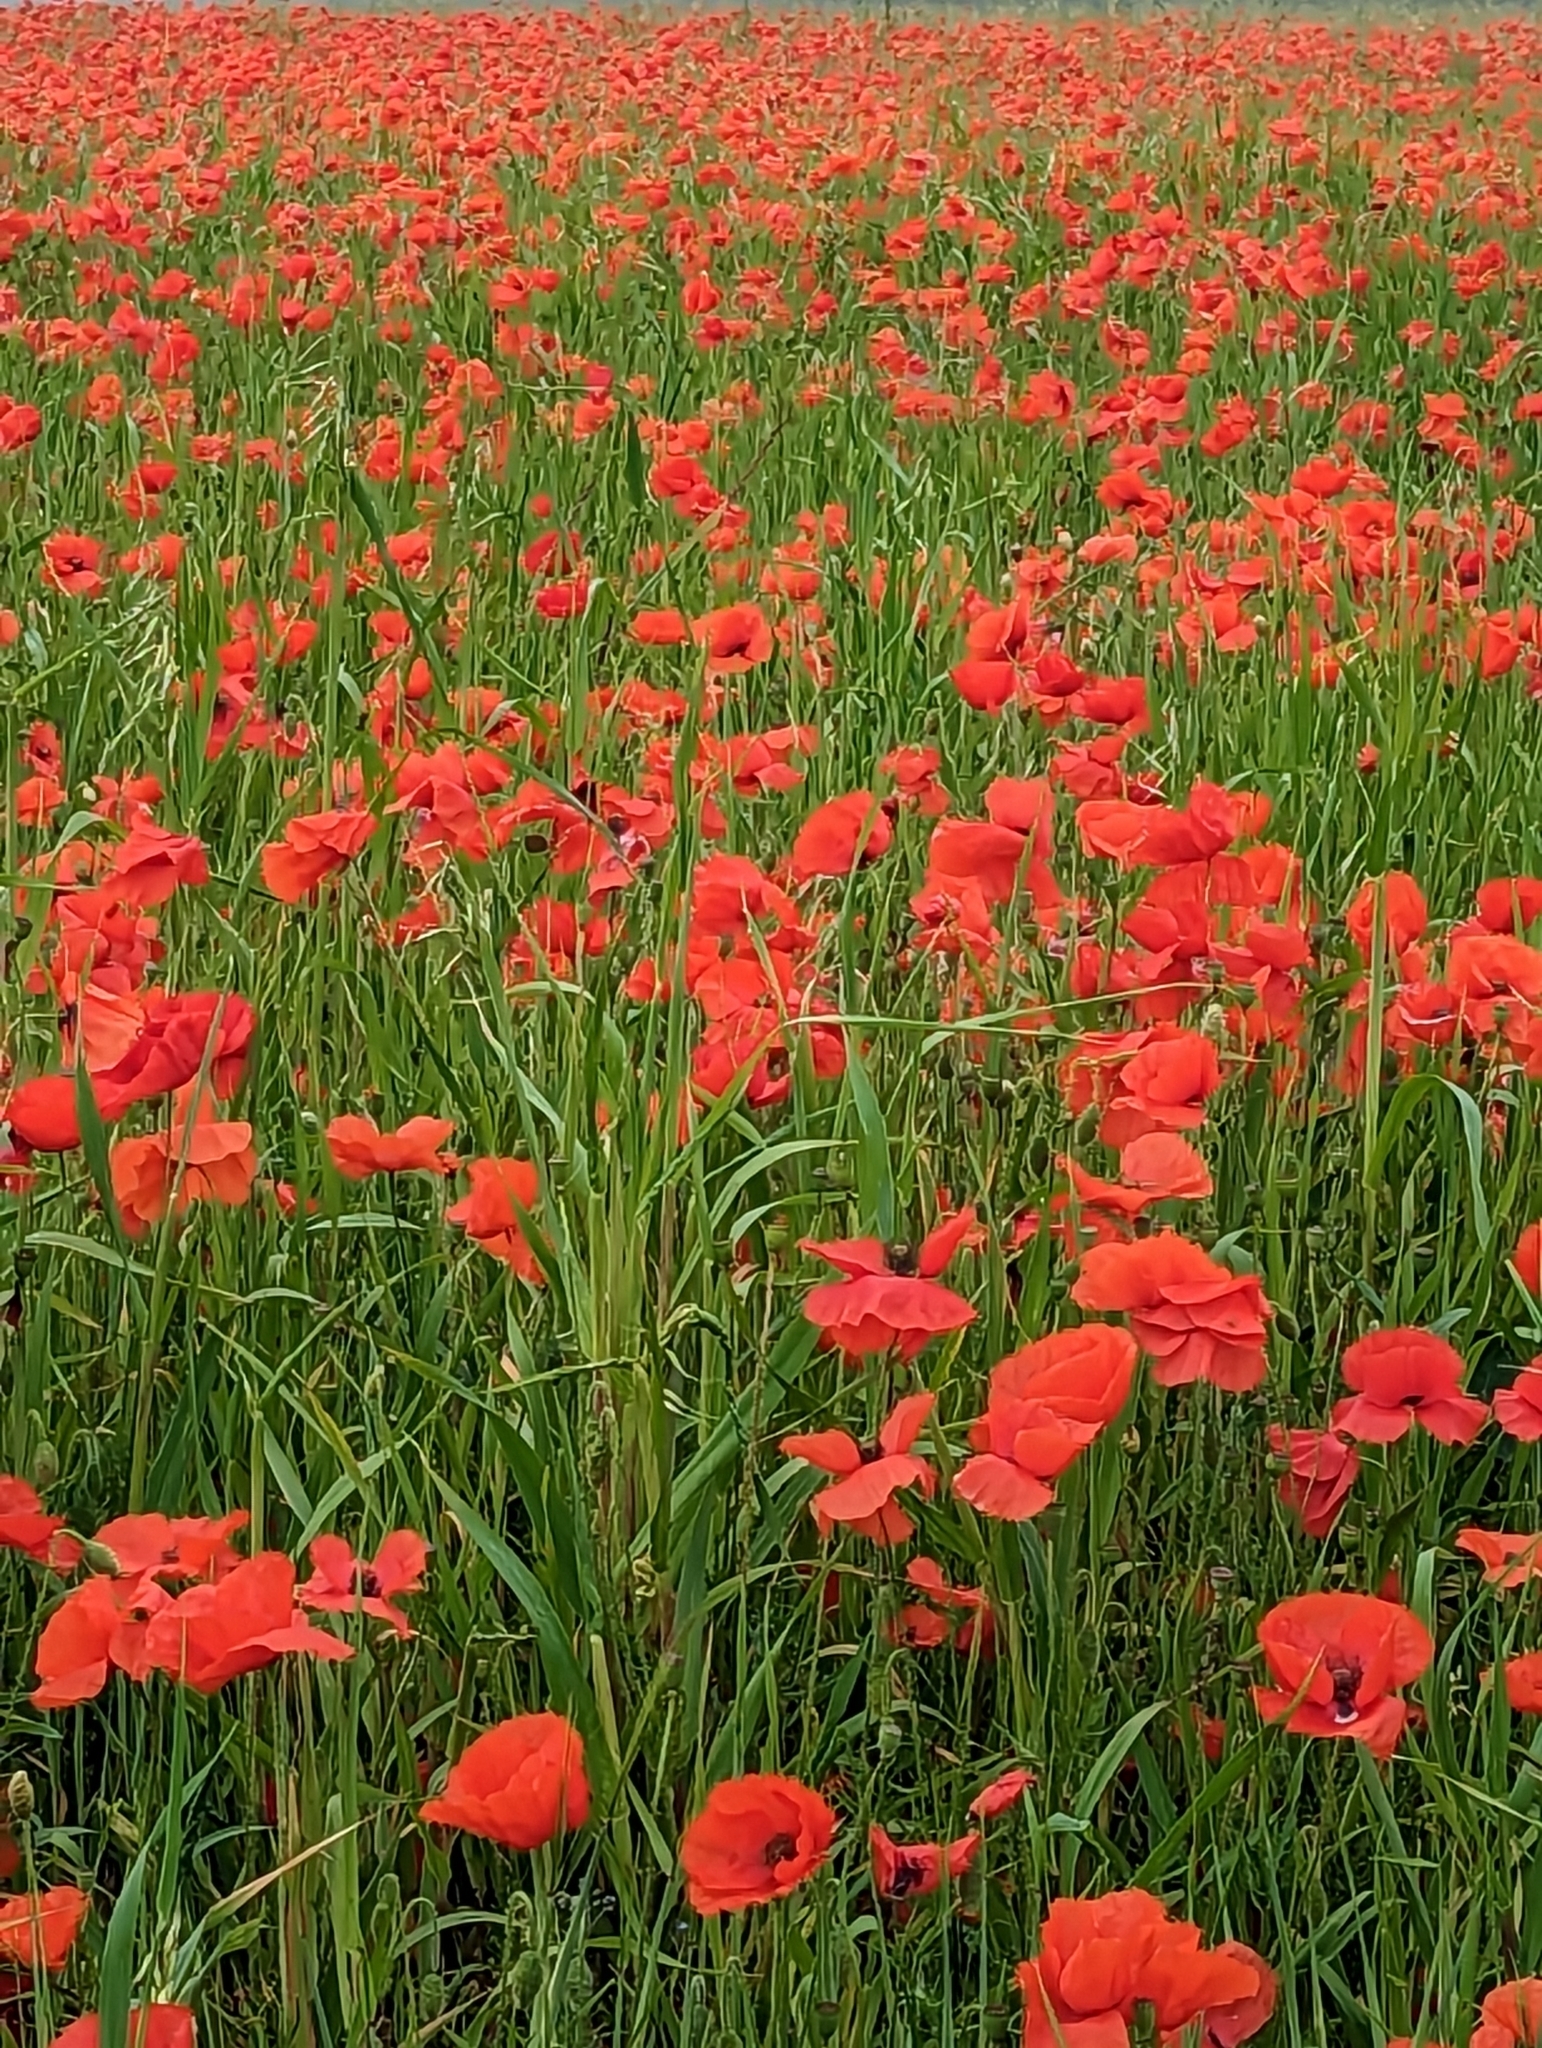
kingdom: Plantae
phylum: Tracheophyta
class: Magnoliopsida
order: Ranunculales
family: Papaveraceae
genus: Papaver
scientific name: Papaver rhoeas
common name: Corn poppy
